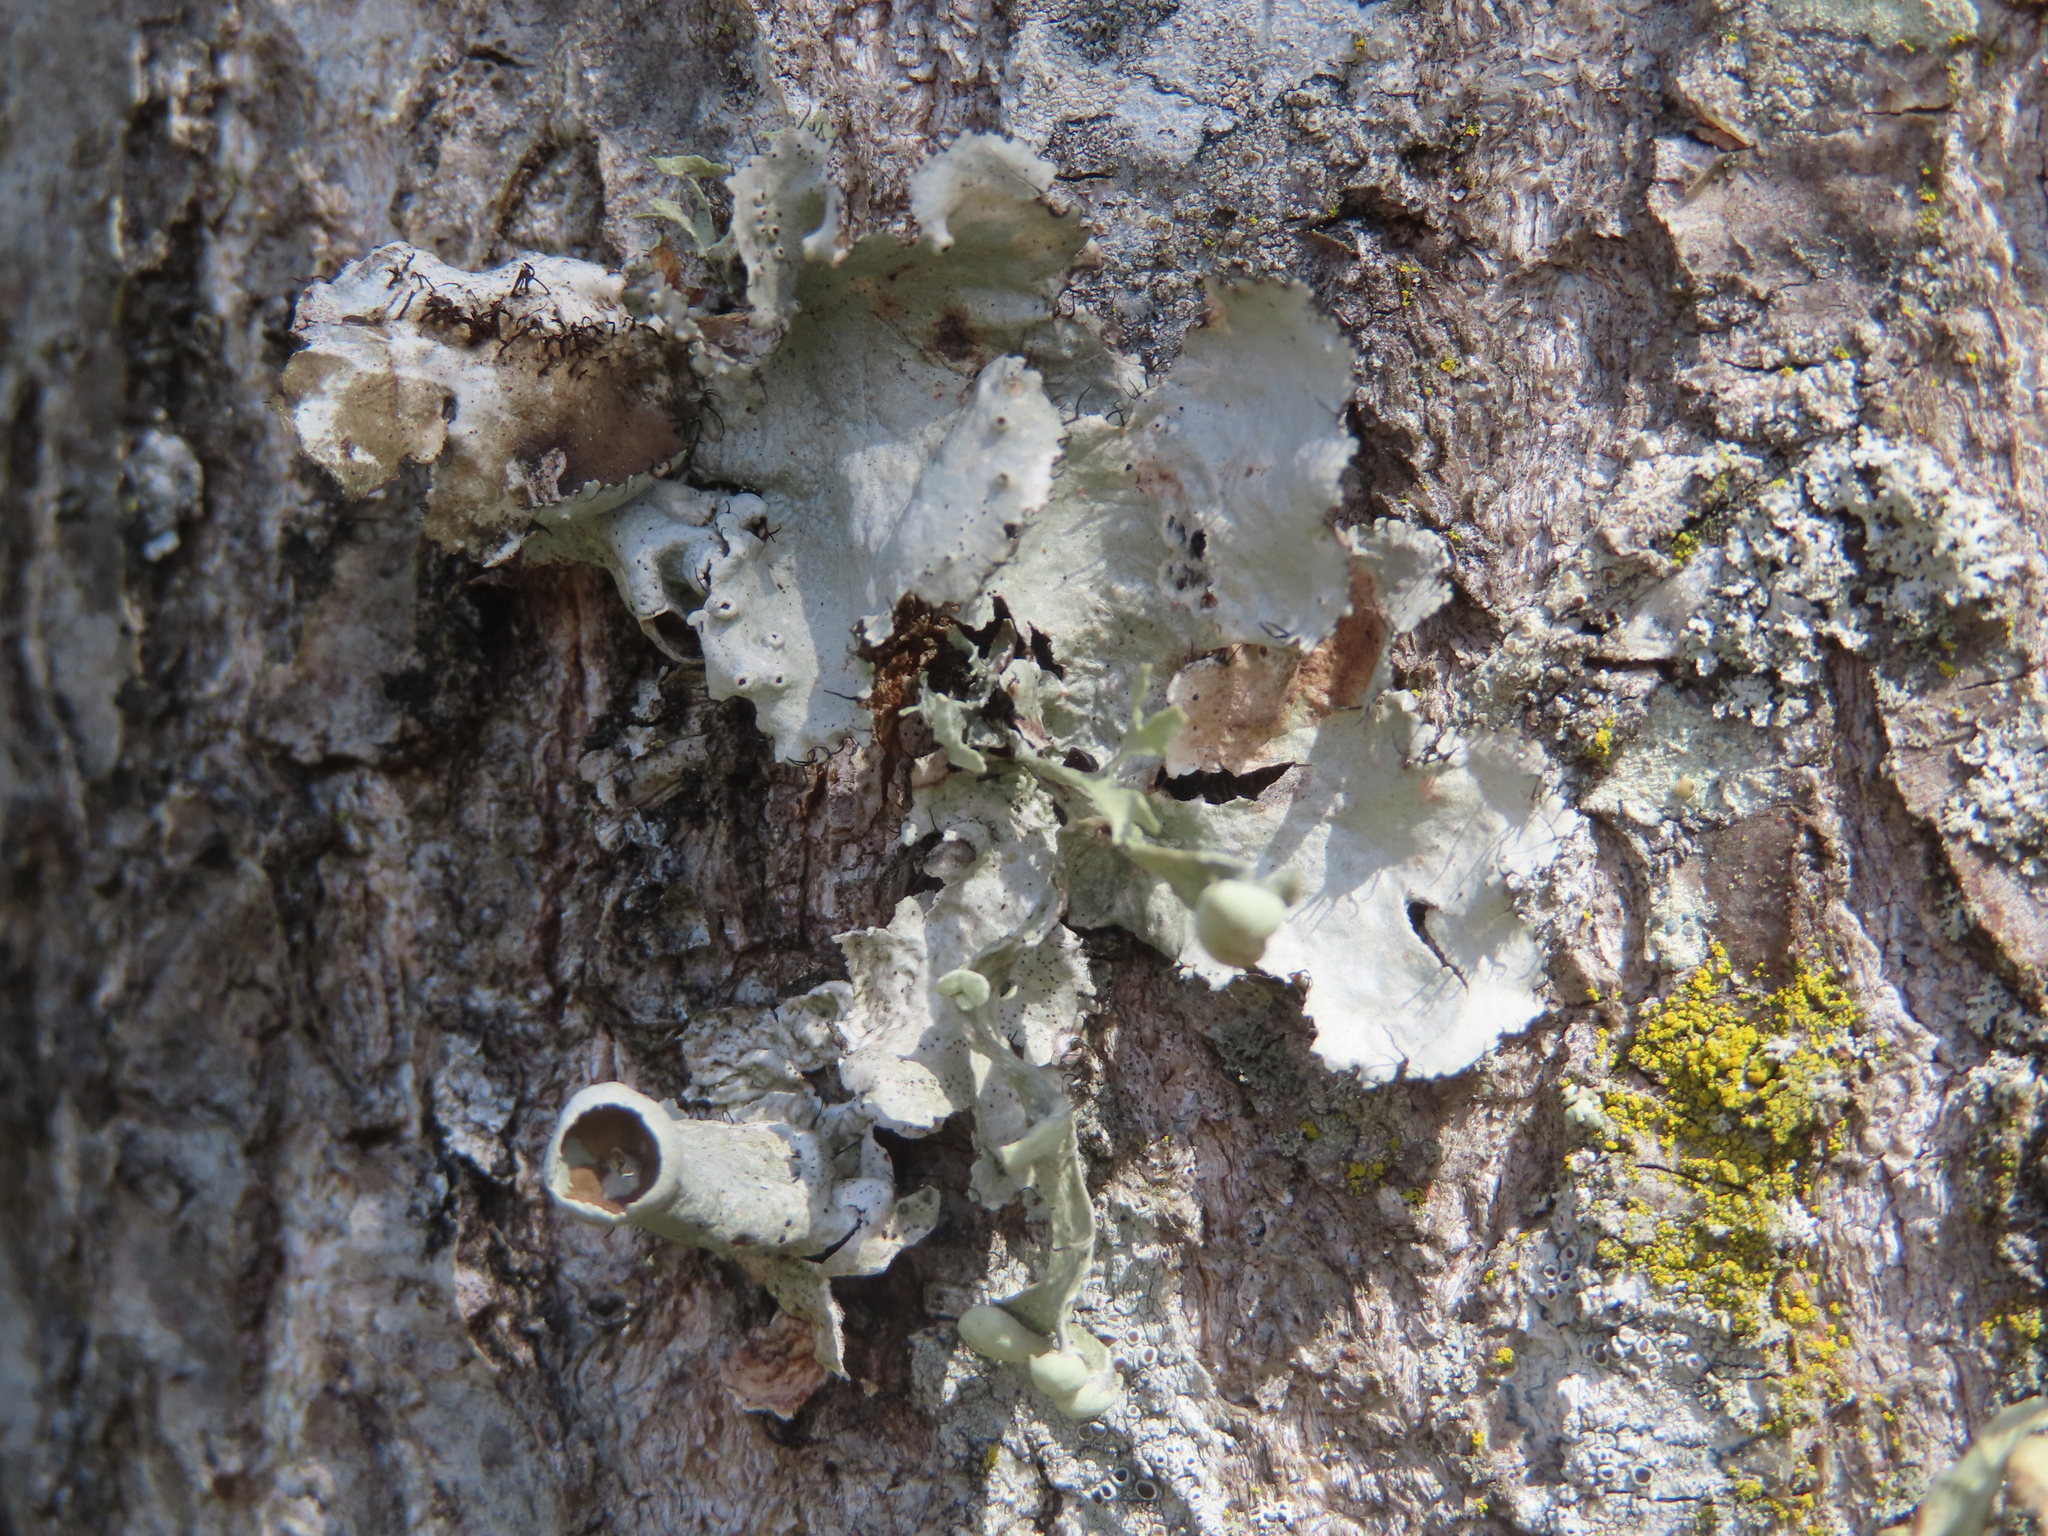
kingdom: Fungi
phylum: Ascomycota
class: Lecanoromycetes
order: Lecanorales
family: Parmeliaceae
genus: Parmotrema
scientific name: Parmotrema perforatum
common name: Perforated ruffle lichen
